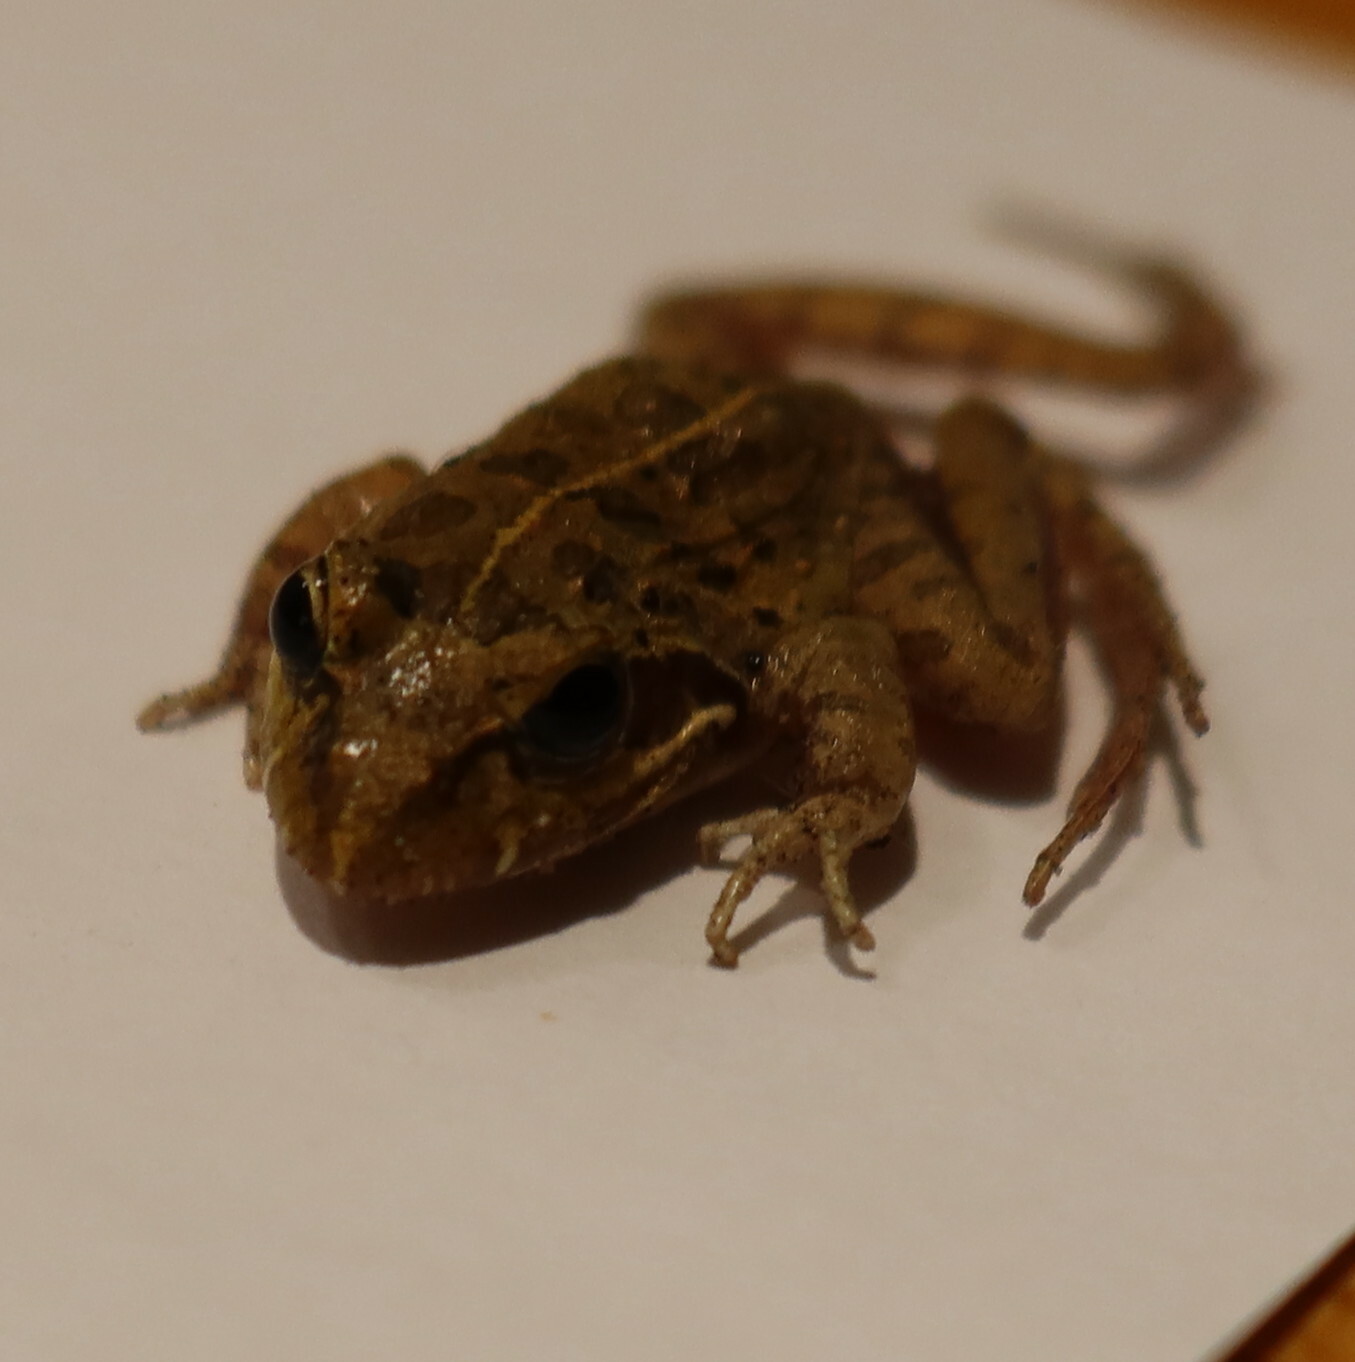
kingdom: Animalia
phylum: Chordata
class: Amphibia
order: Anura
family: Pyxicephalidae
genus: Strongylopus
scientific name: Strongylopus grayii
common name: Gray's stream frog
